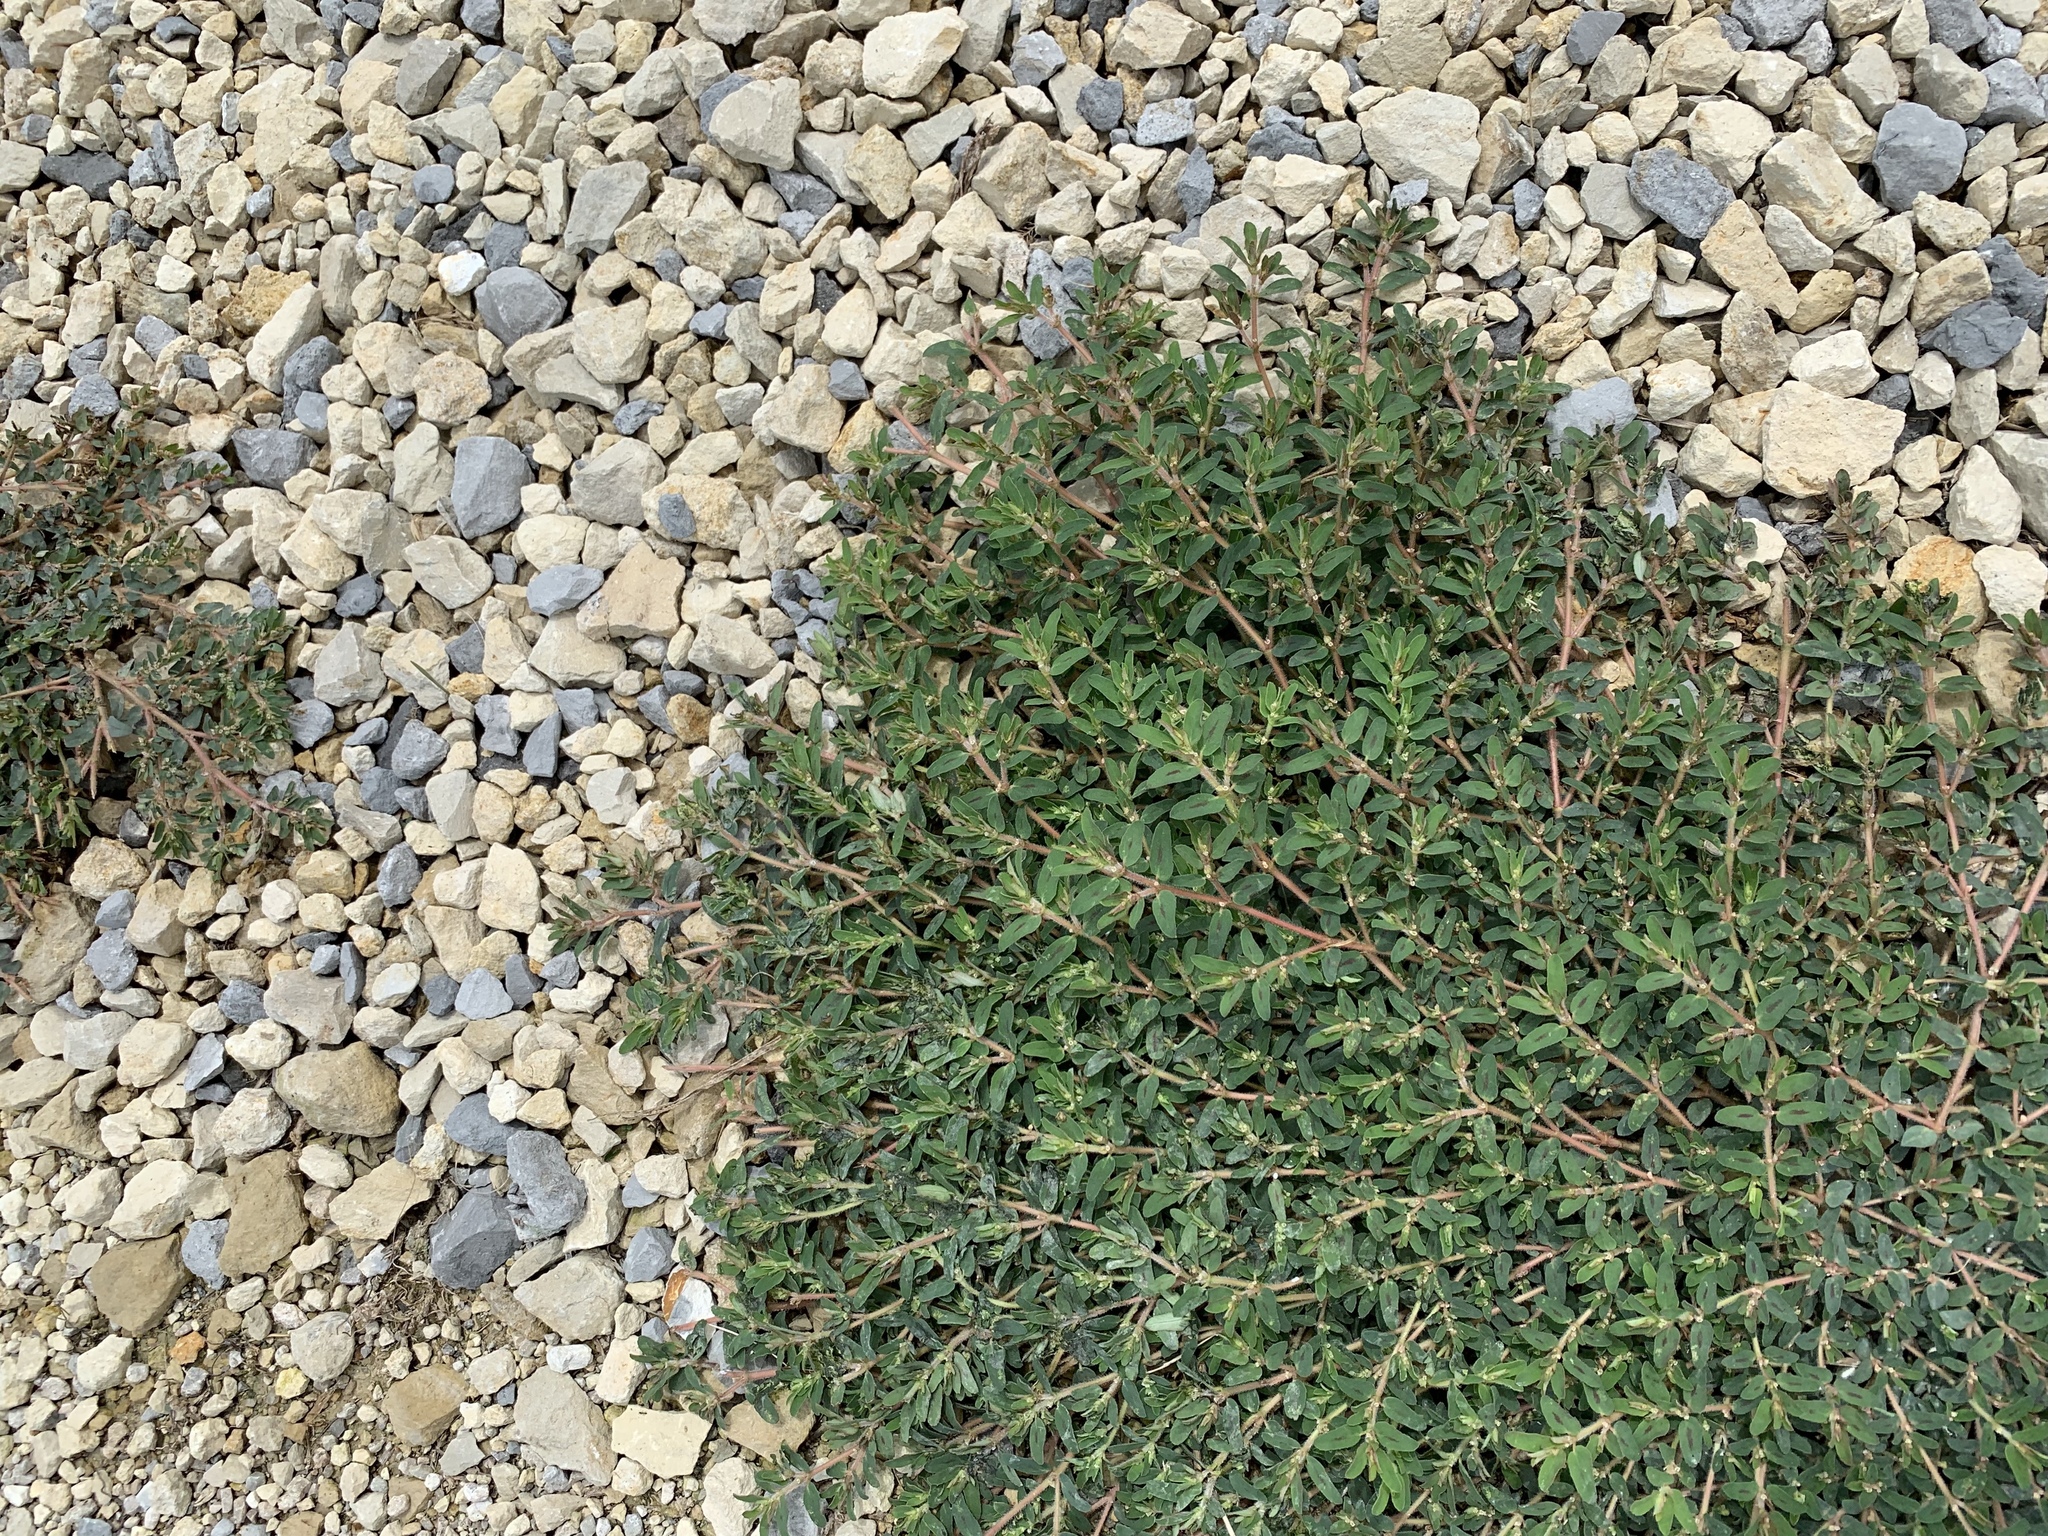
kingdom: Plantae
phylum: Tracheophyta
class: Magnoliopsida
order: Malpighiales
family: Euphorbiaceae
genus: Euphorbia
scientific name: Euphorbia maculata
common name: Spotted spurge
